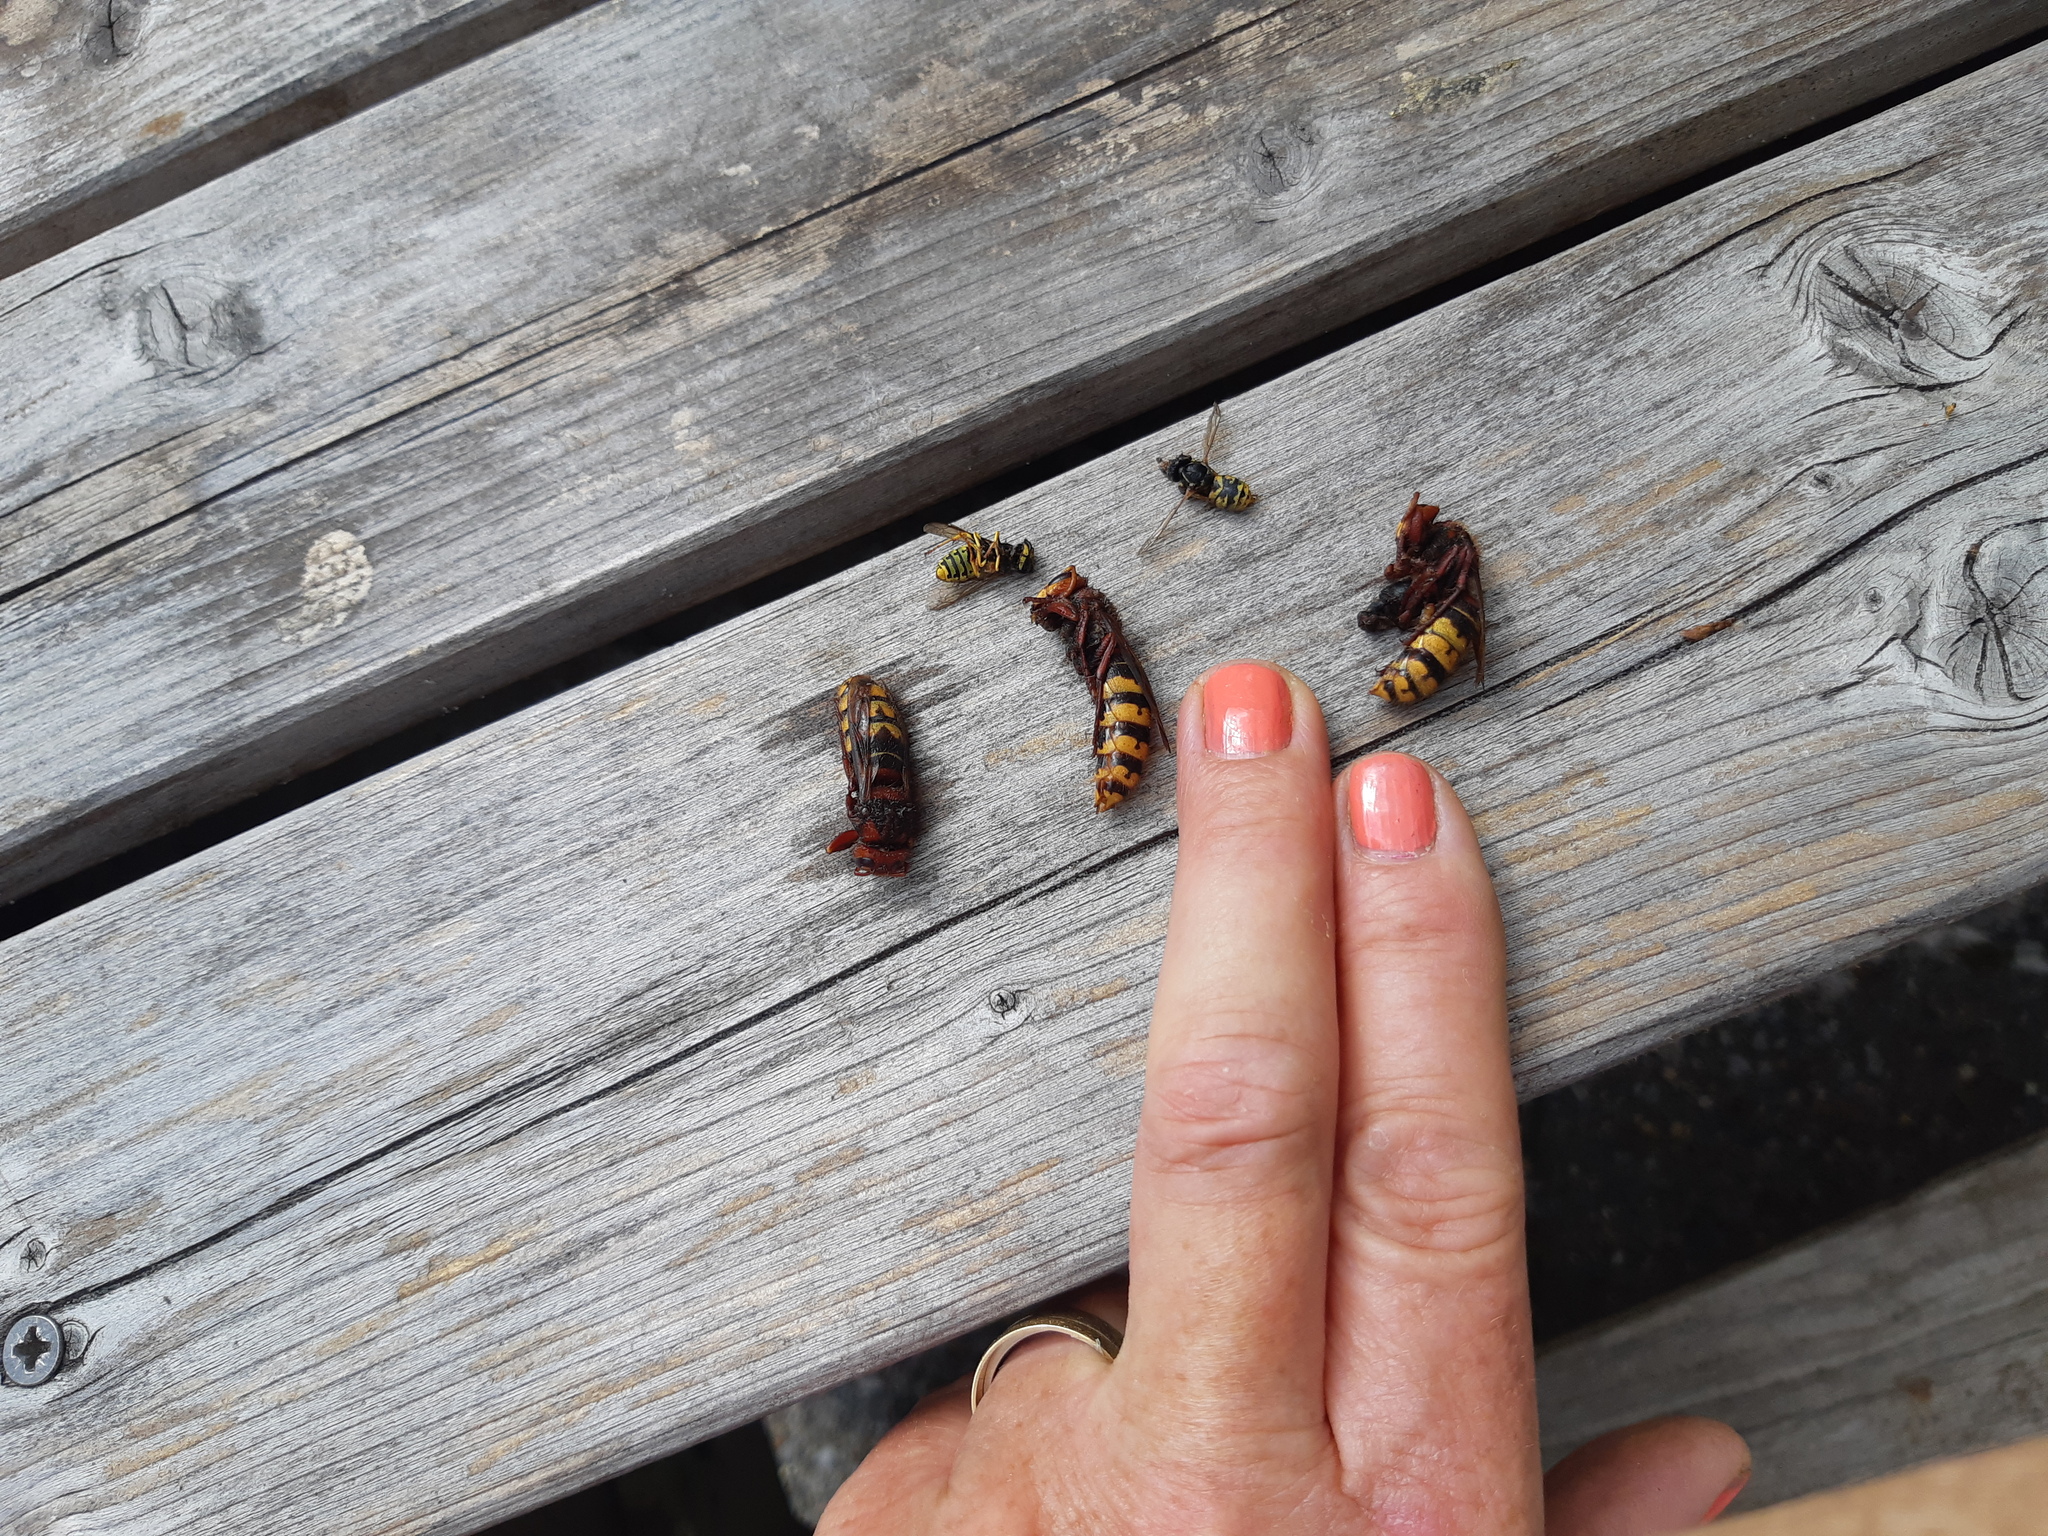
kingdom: Animalia
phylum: Arthropoda
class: Insecta
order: Hymenoptera
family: Vespidae
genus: Vespa
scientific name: Vespa crabro
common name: Hornet
